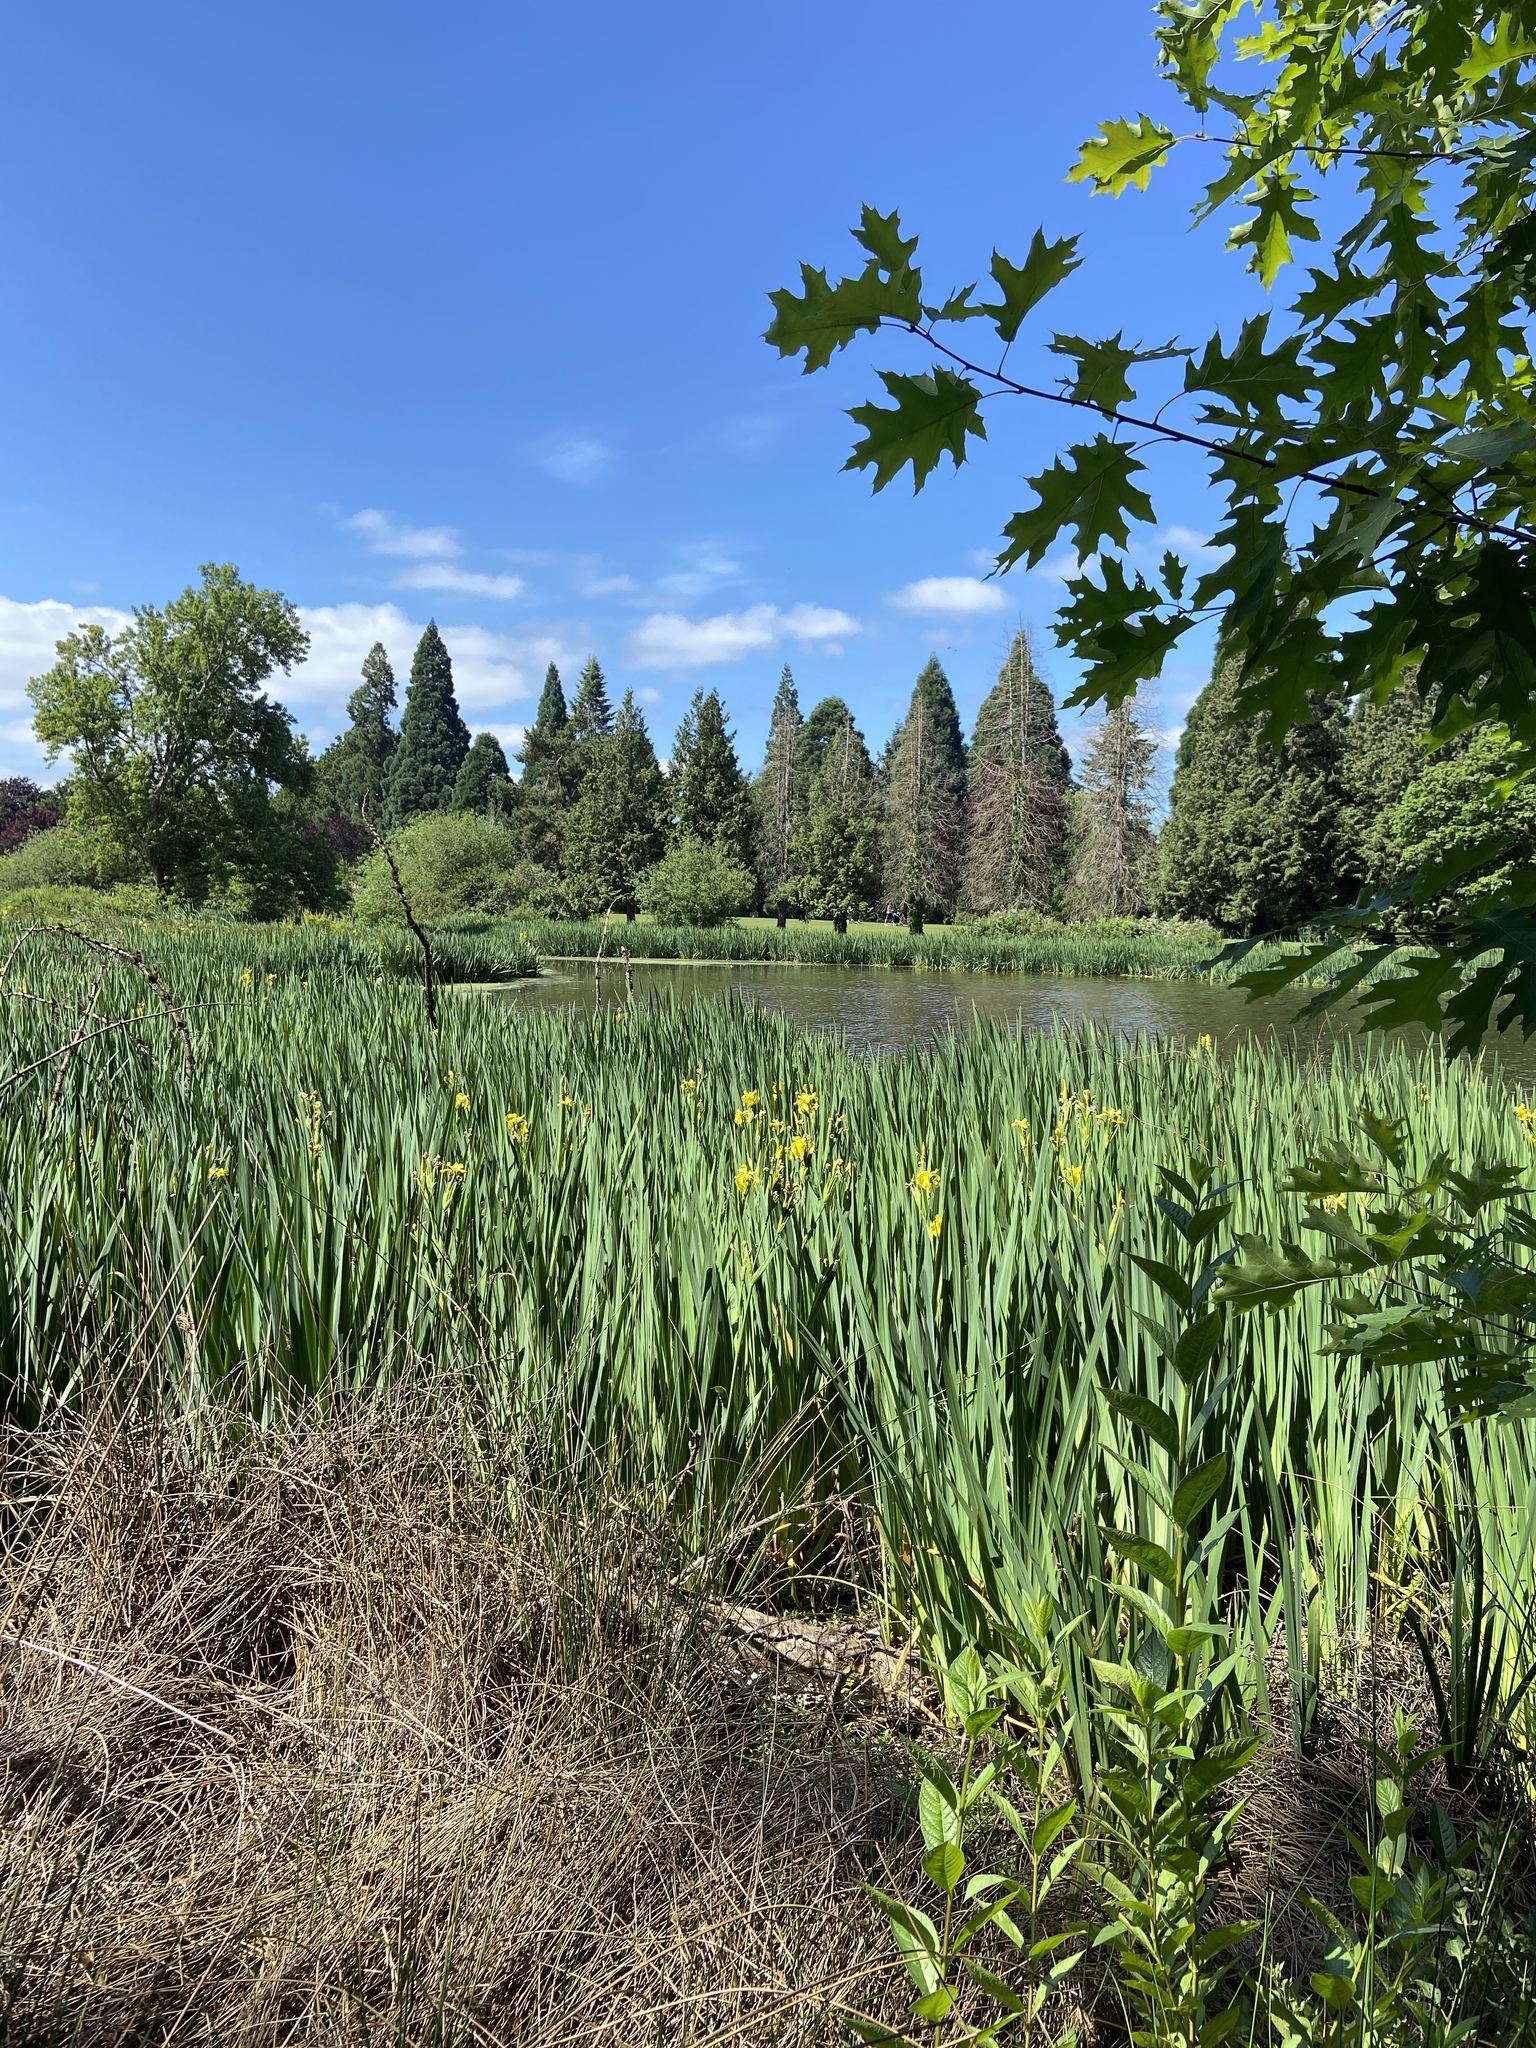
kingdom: Plantae
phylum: Tracheophyta
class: Liliopsida
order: Asparagales
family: Iridaceae
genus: Iris
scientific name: Iris pseudacorus
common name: Yellow flag
